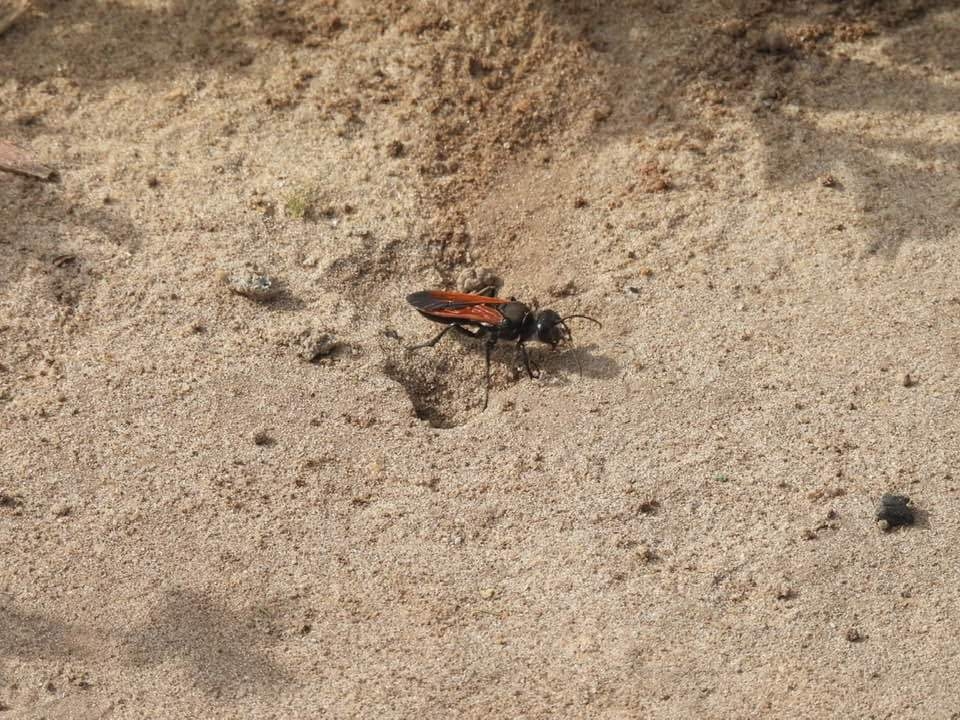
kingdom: Animalia
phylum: Arthropoda
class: Insecta
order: Hymenoptera
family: Sphecidae
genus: Sphex
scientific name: Sphex torridus
